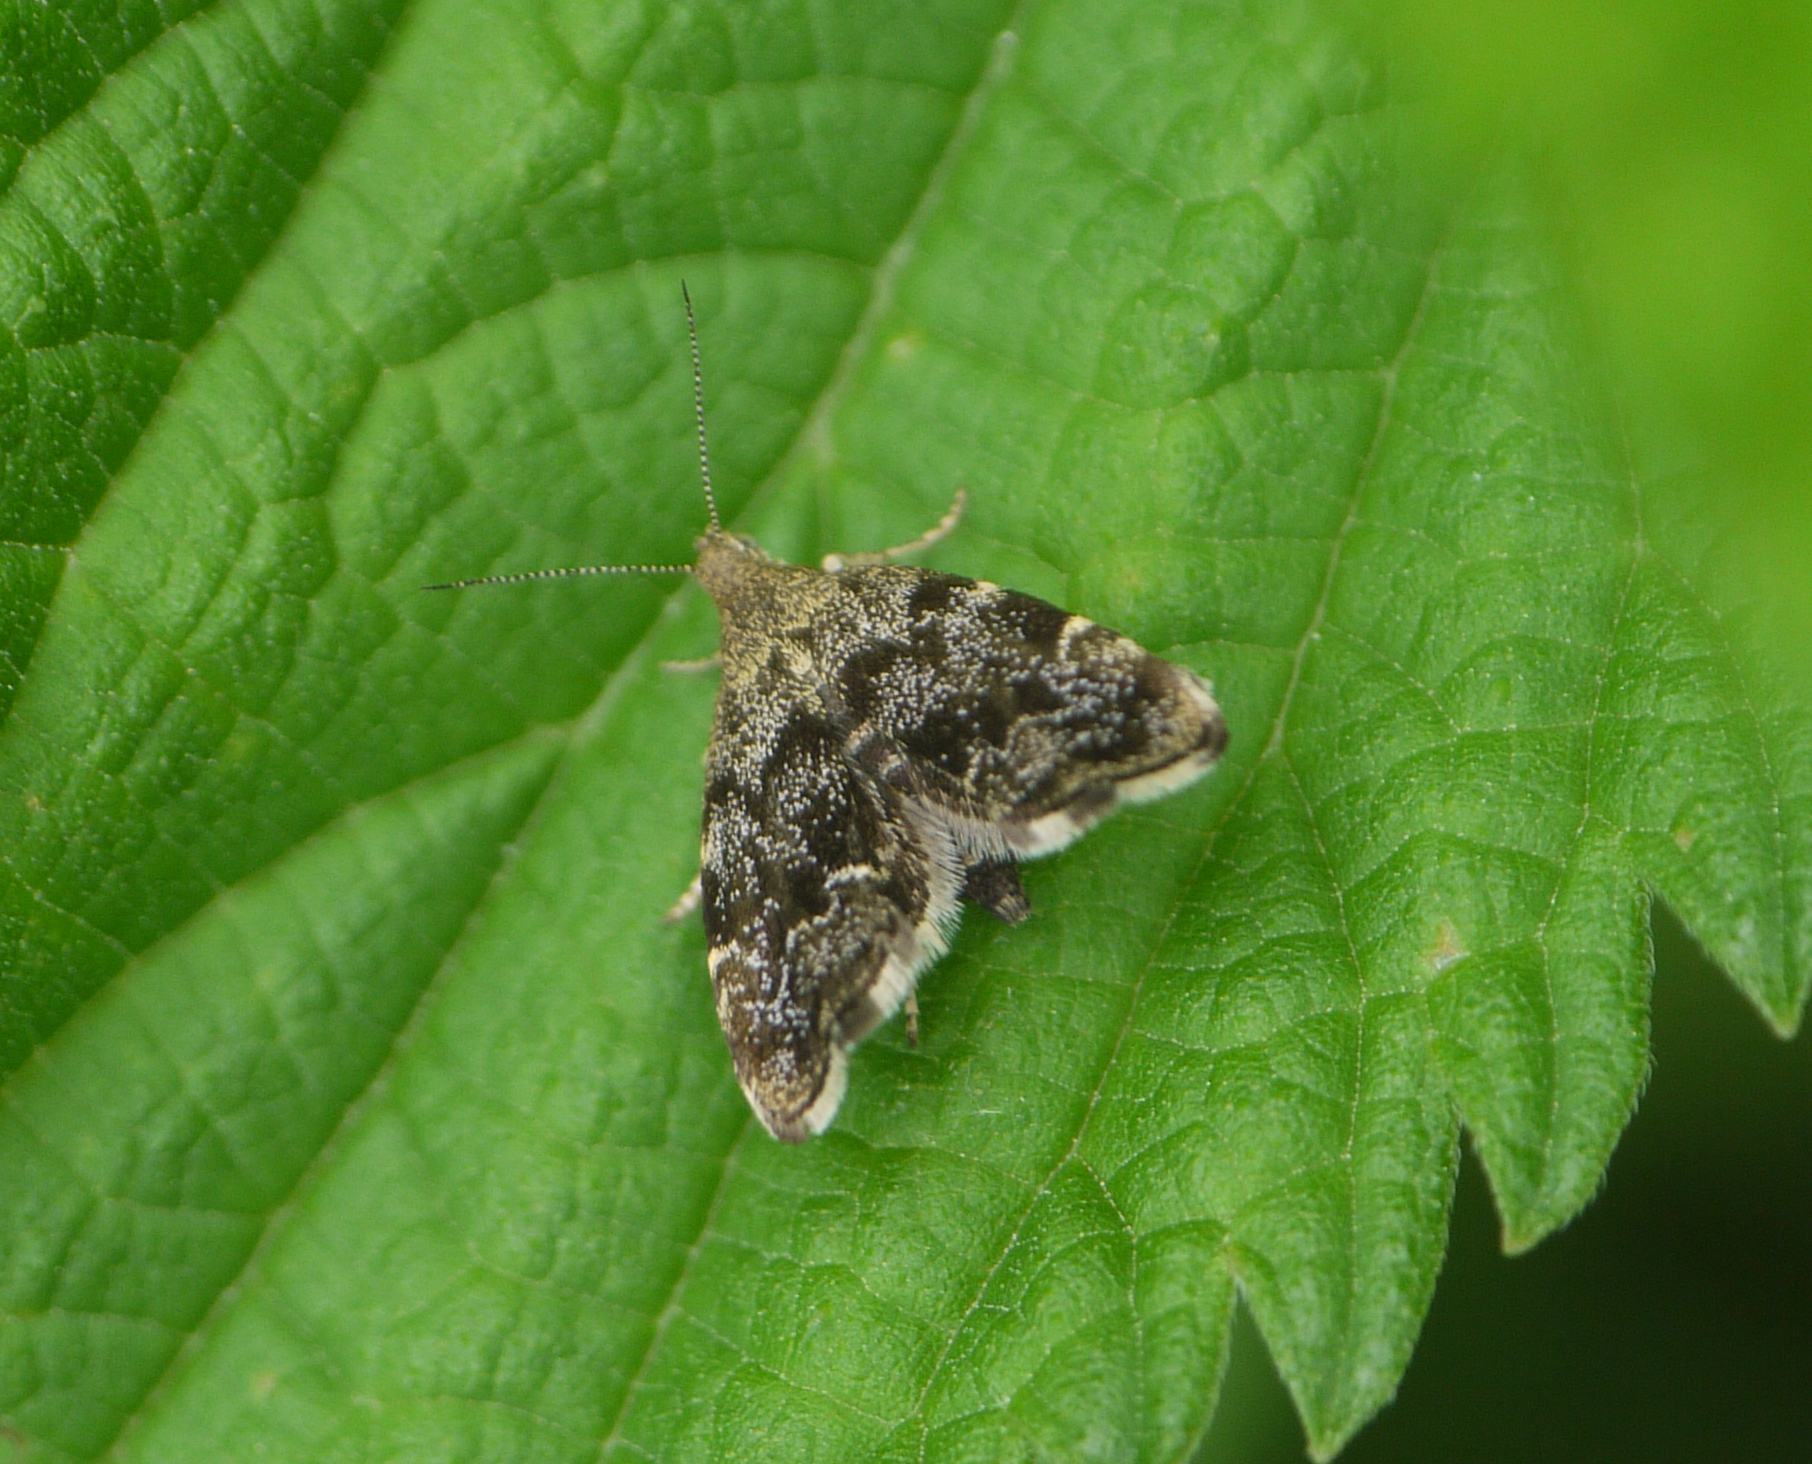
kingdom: Animalia
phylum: Arthropoda
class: Insecta
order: Lepidoptera
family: Choreutidae
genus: Anthophila
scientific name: Anthophila fabriciana
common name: Nettle-tap
